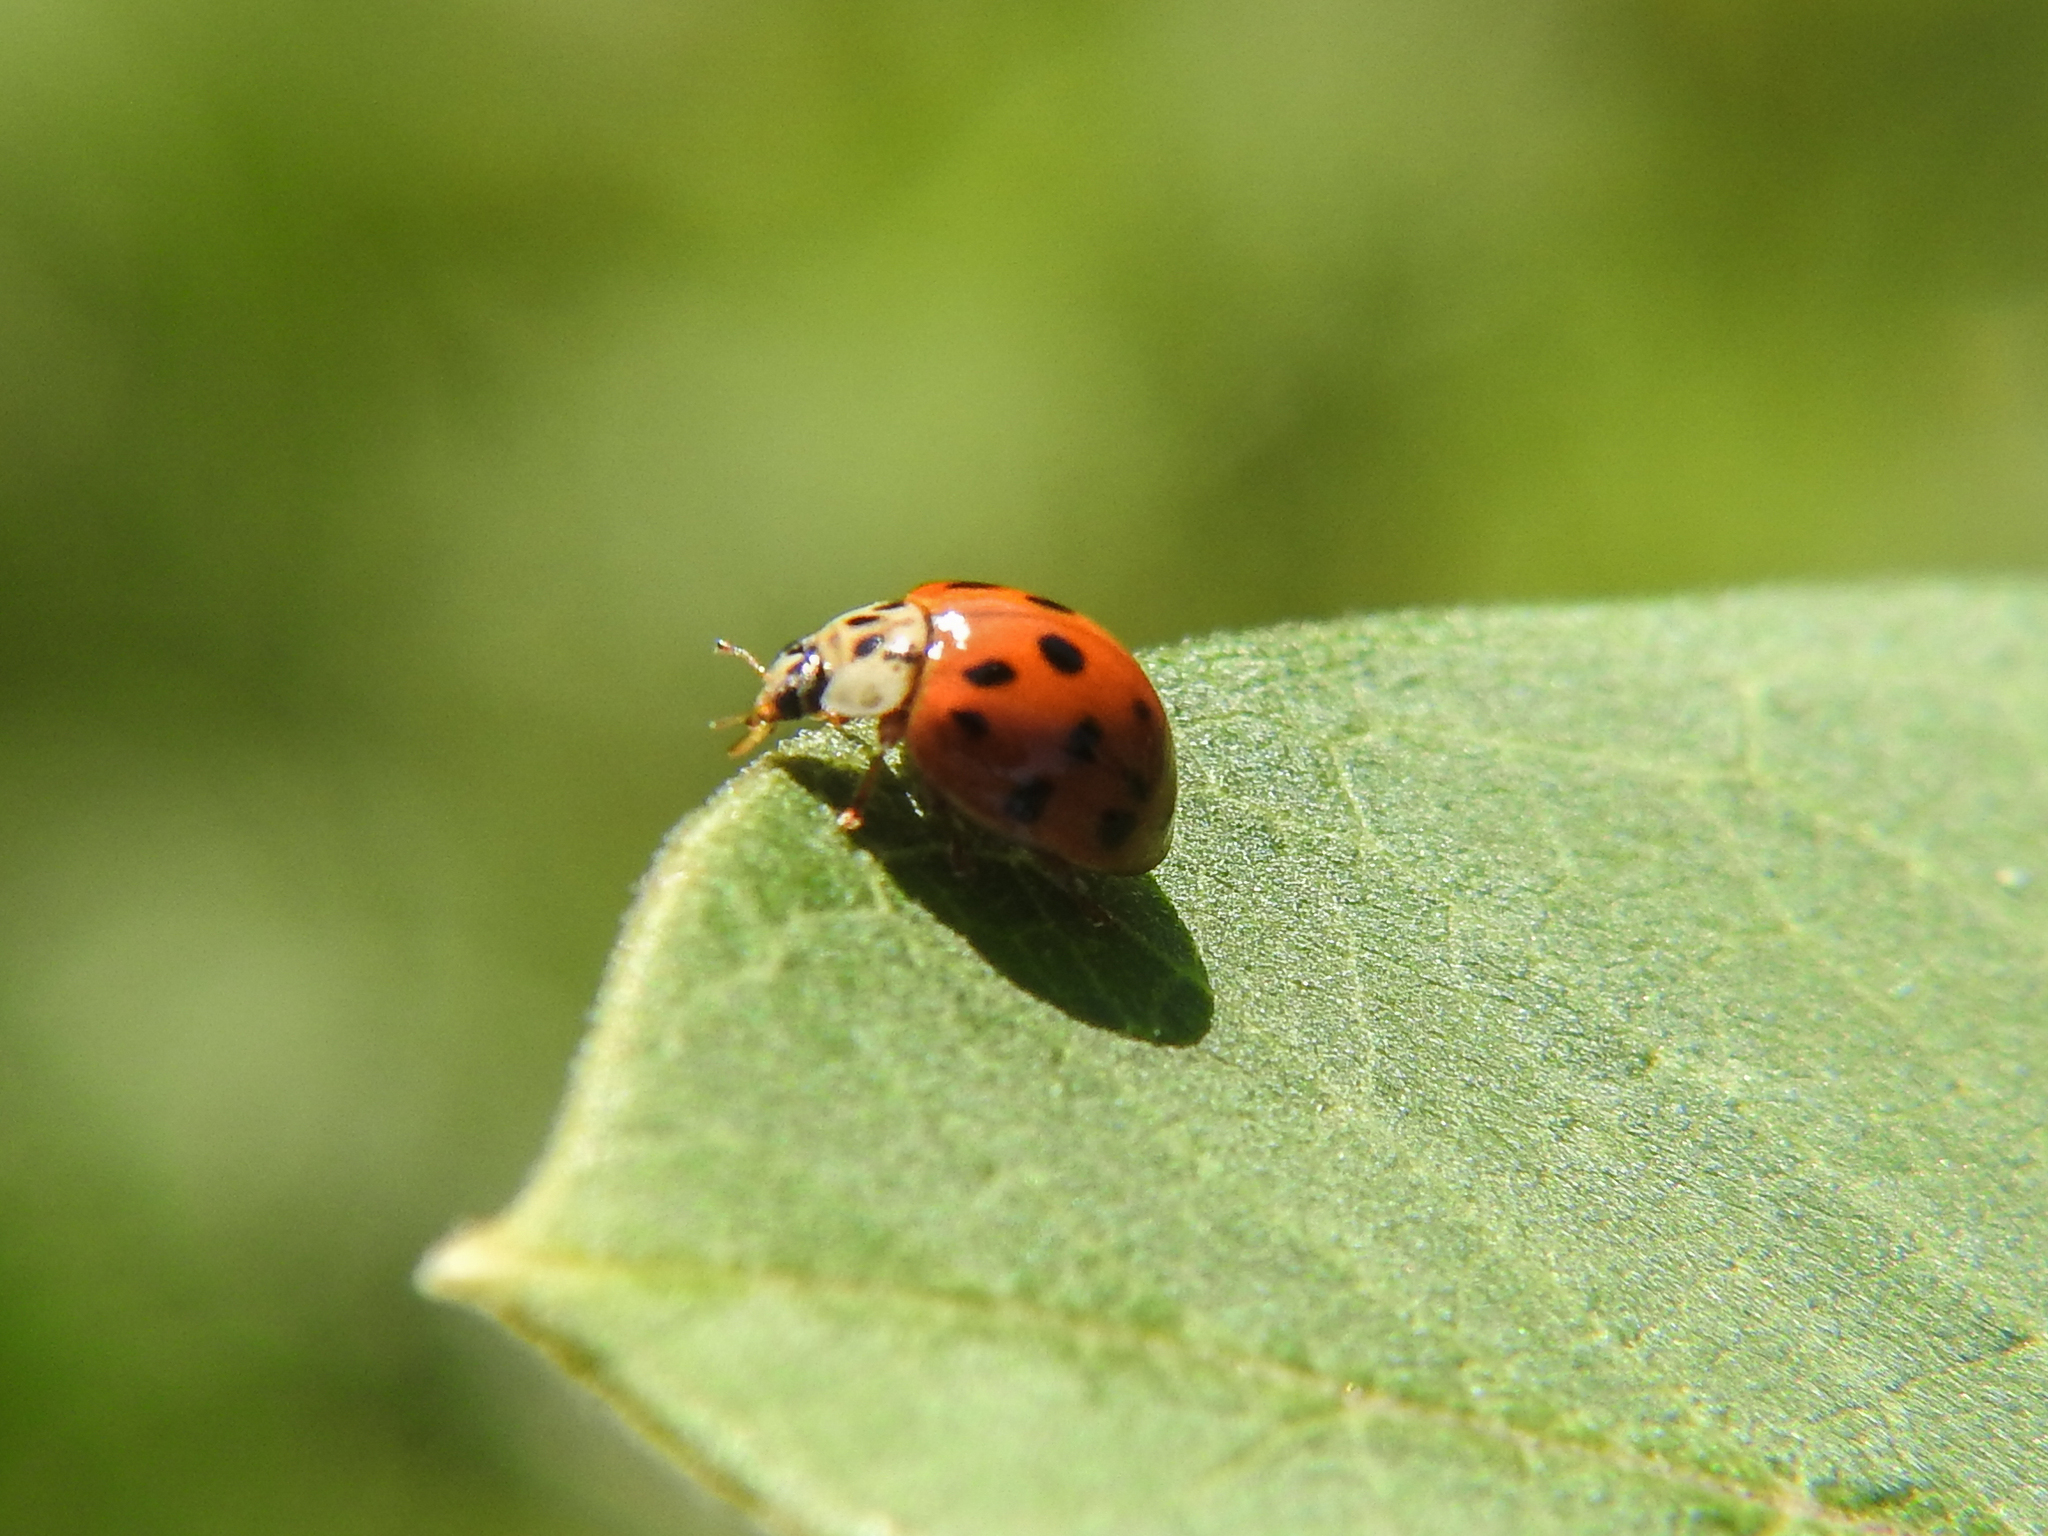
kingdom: Animalia
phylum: Arthropoda
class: Insecta
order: Coleoptera
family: Coccinellidae
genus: Harmonia
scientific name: Harmonia axyridis
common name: Harlequin ladybird
